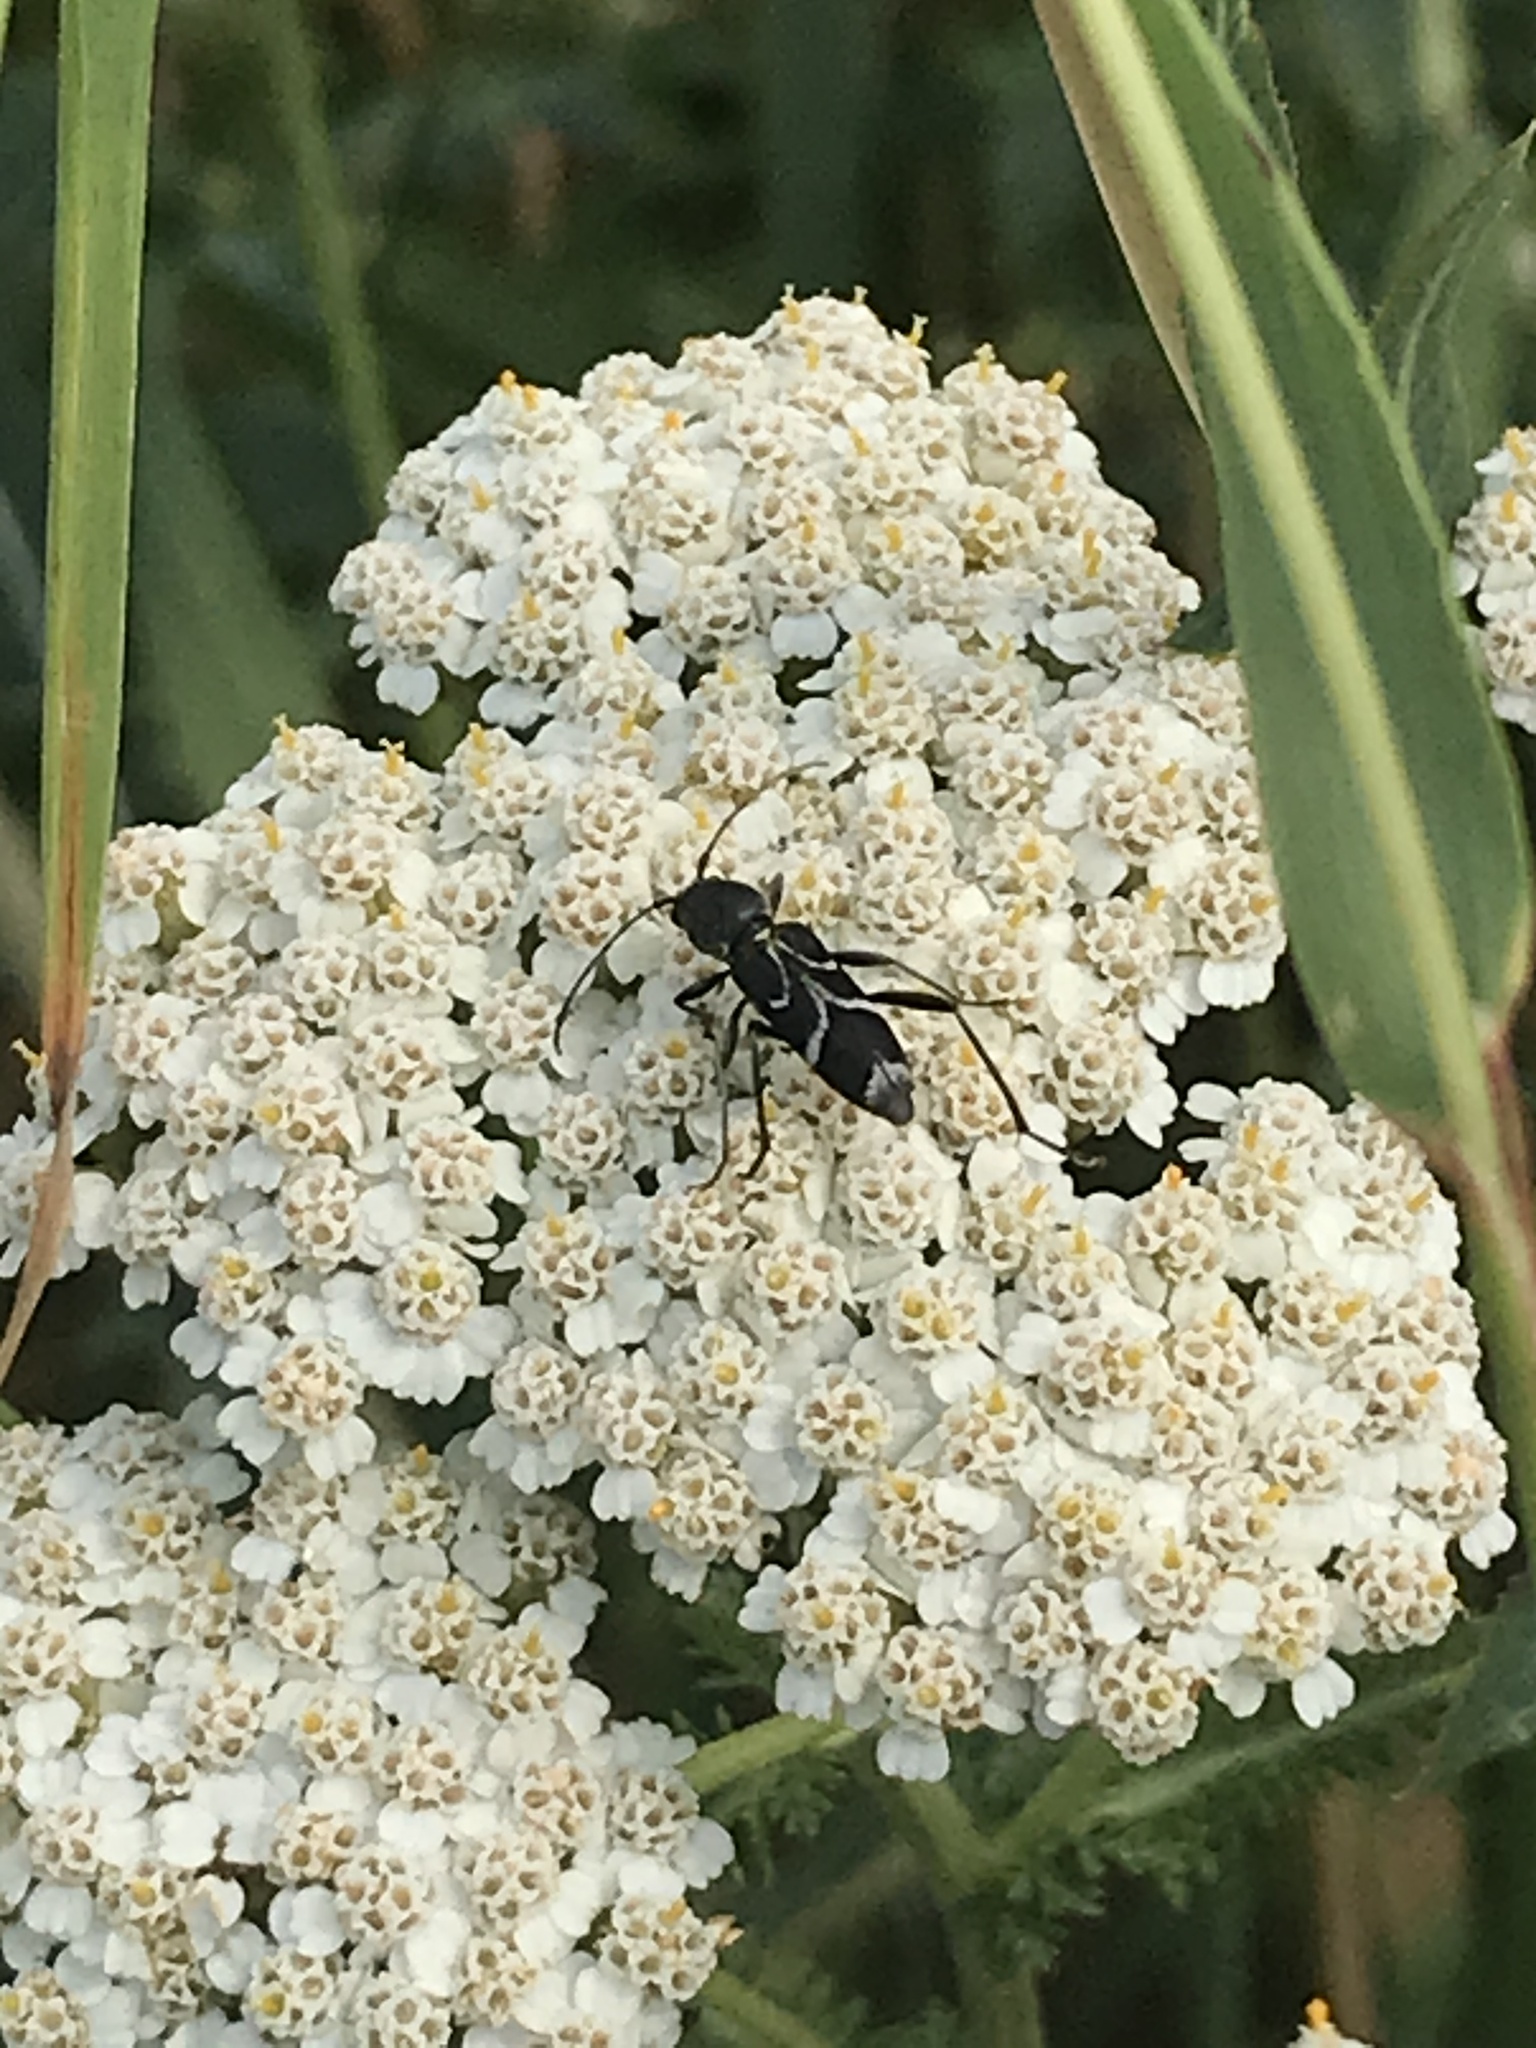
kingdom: Animalia
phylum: Arthropoda
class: Insecta
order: Coleoptera
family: Cerambycidae
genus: Chlorophorus
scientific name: Chlorophorus sartor
